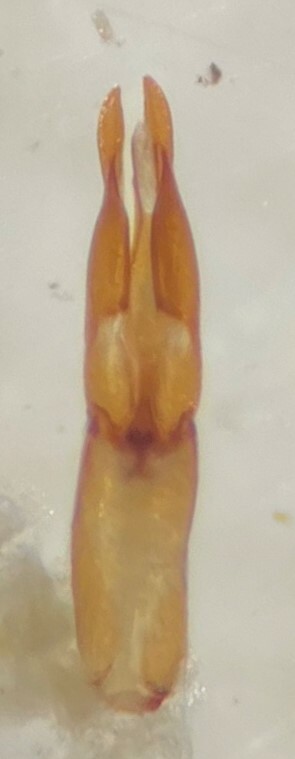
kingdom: Animalia
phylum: Arthropoda
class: Insecta
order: Coleoptera
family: Hydrochidae
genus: Hydrochus
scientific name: Hydrochus neosquamifer
